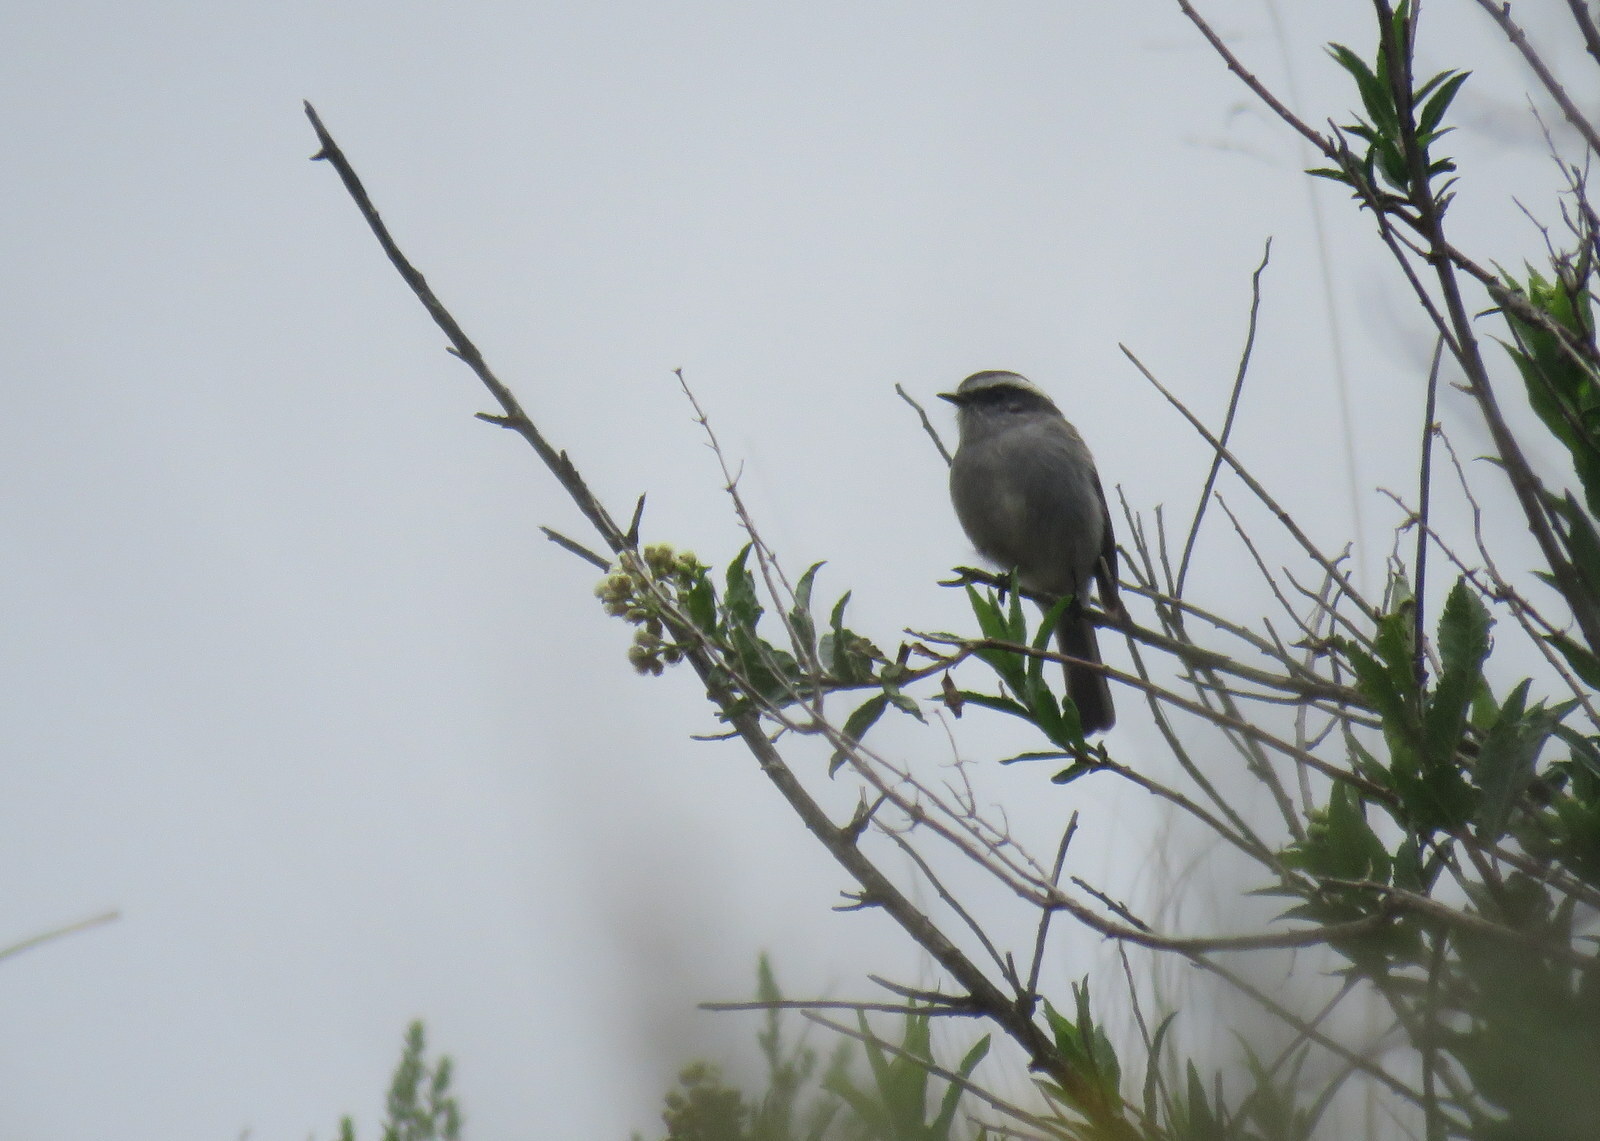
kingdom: Animalia
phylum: Chordata
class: Aves
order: Passeriformes
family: Tyrannidae
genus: Ochthoeca
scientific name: Ochthoeca leucophrys
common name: White-browed chat-tyrant
